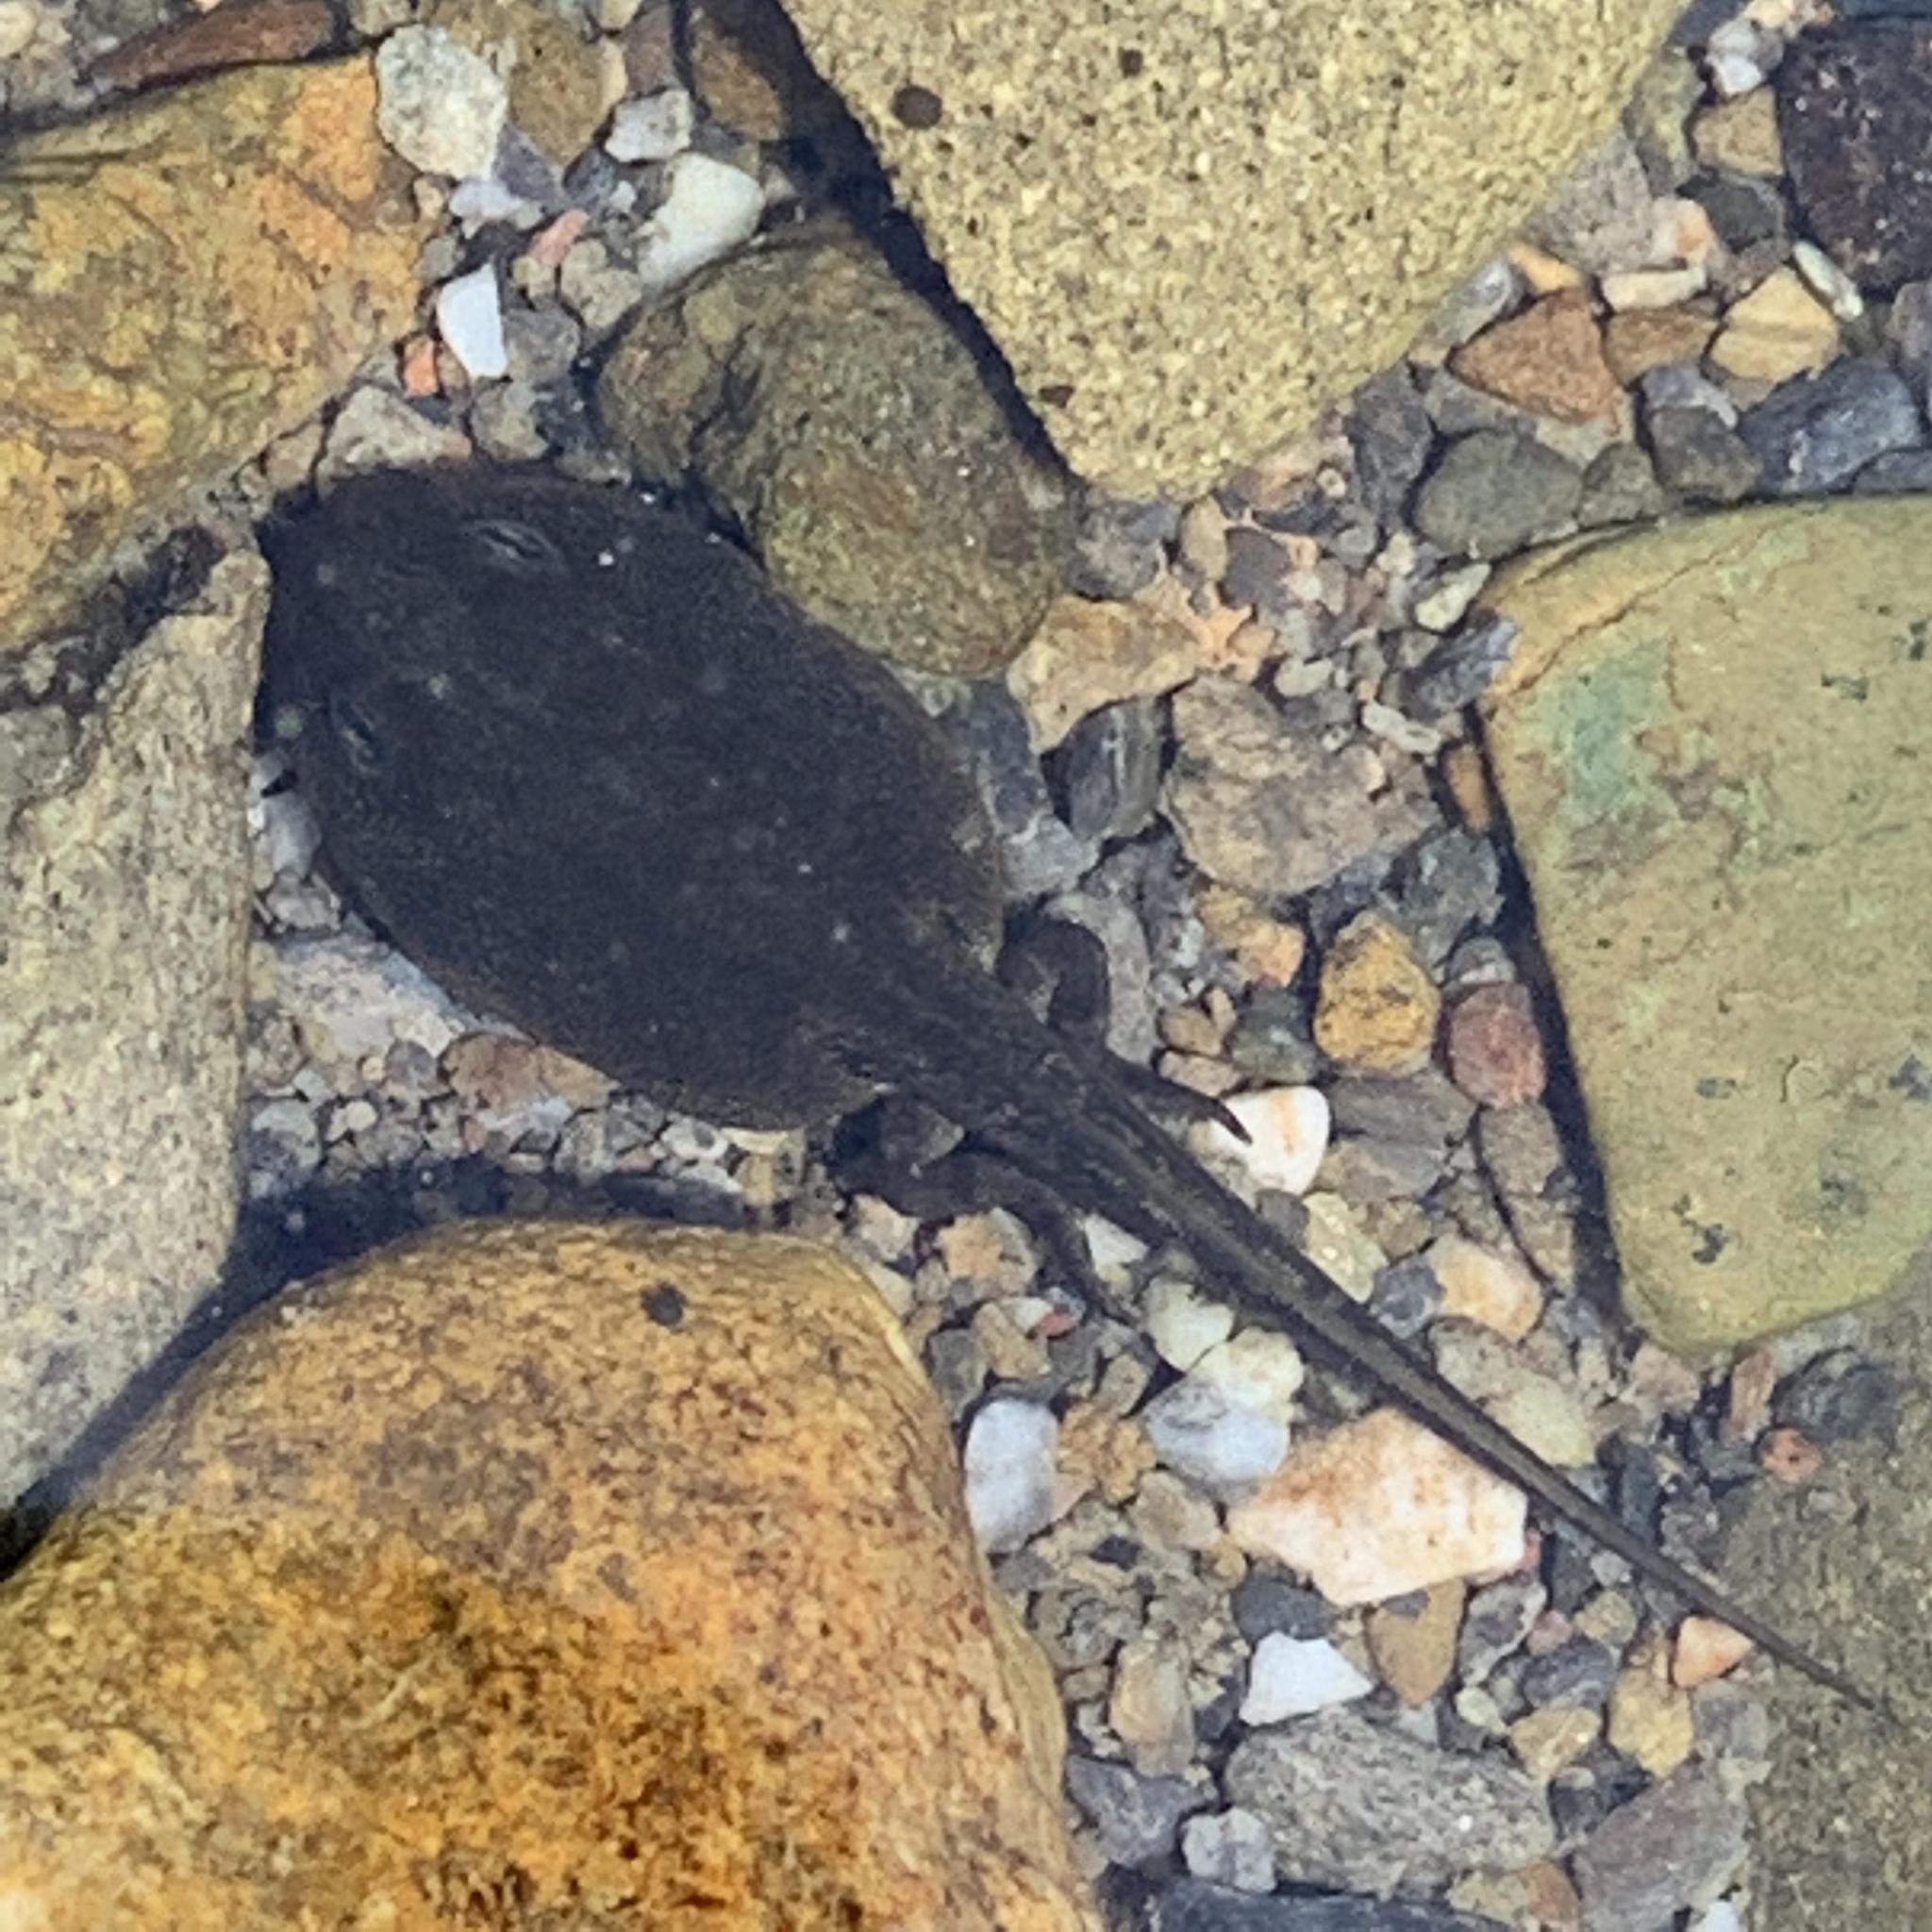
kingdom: Animalia
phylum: Chordata
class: Amphibia
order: Anura
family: Bufonidae
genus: Anaxyrus
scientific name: Anaxyrus boreas
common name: Western toad
